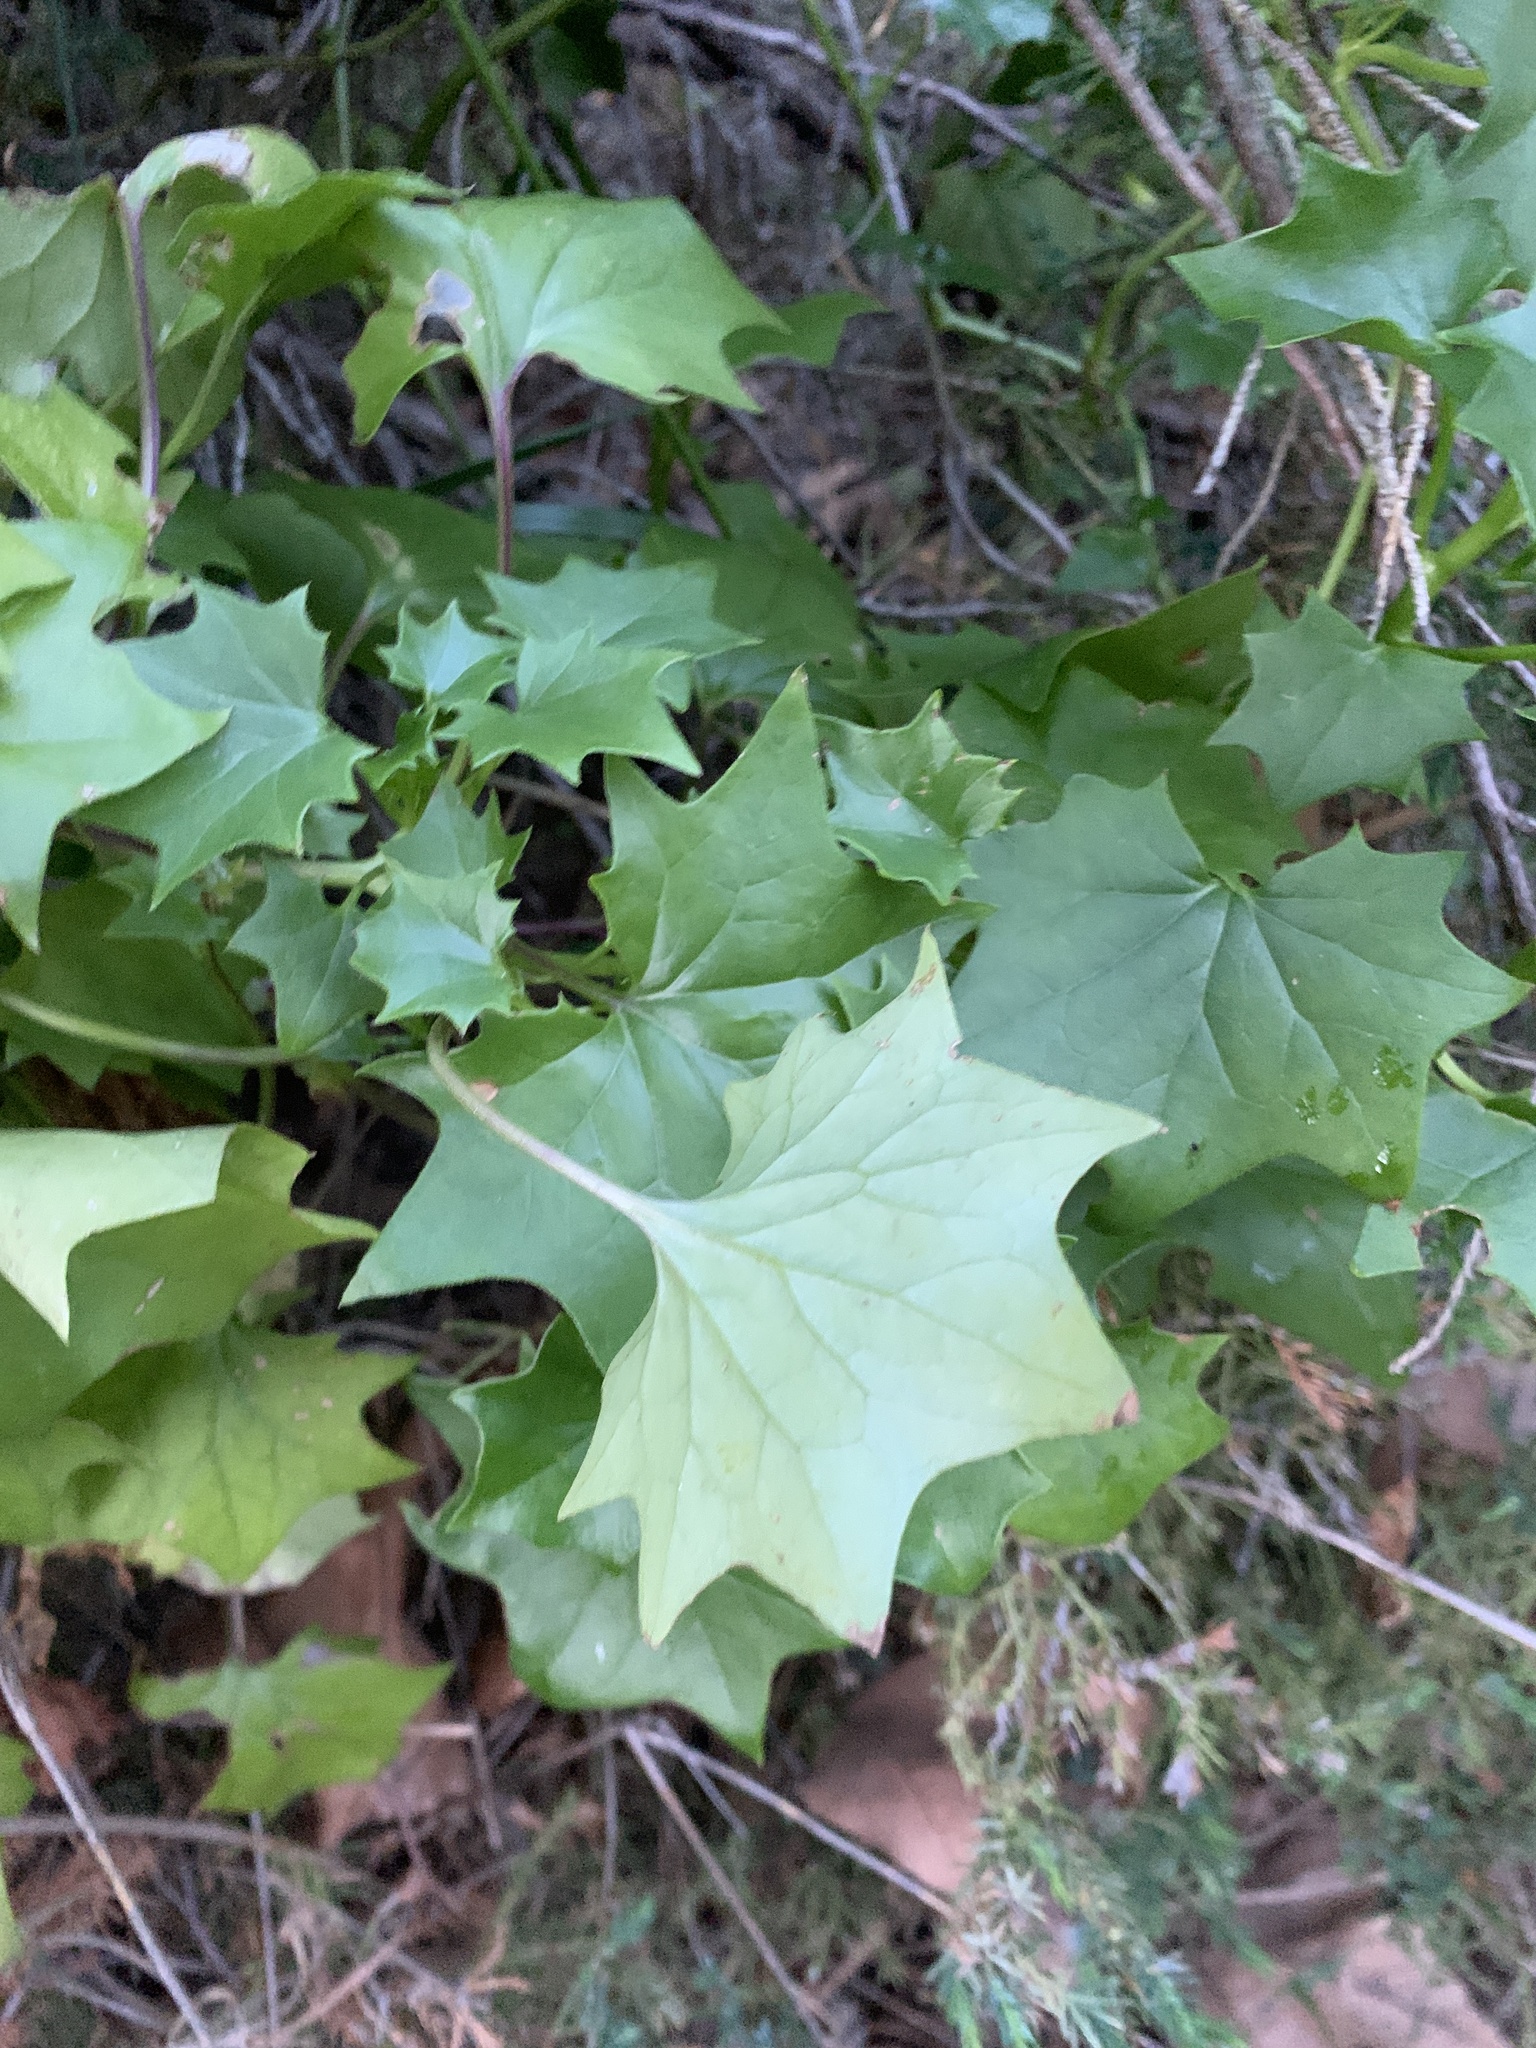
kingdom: Plantae
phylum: Tracheophyta
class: Magnoliopsida
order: Asterales
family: Asteraceae
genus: Delairea
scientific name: Delairea odorata
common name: Cape-ivy
